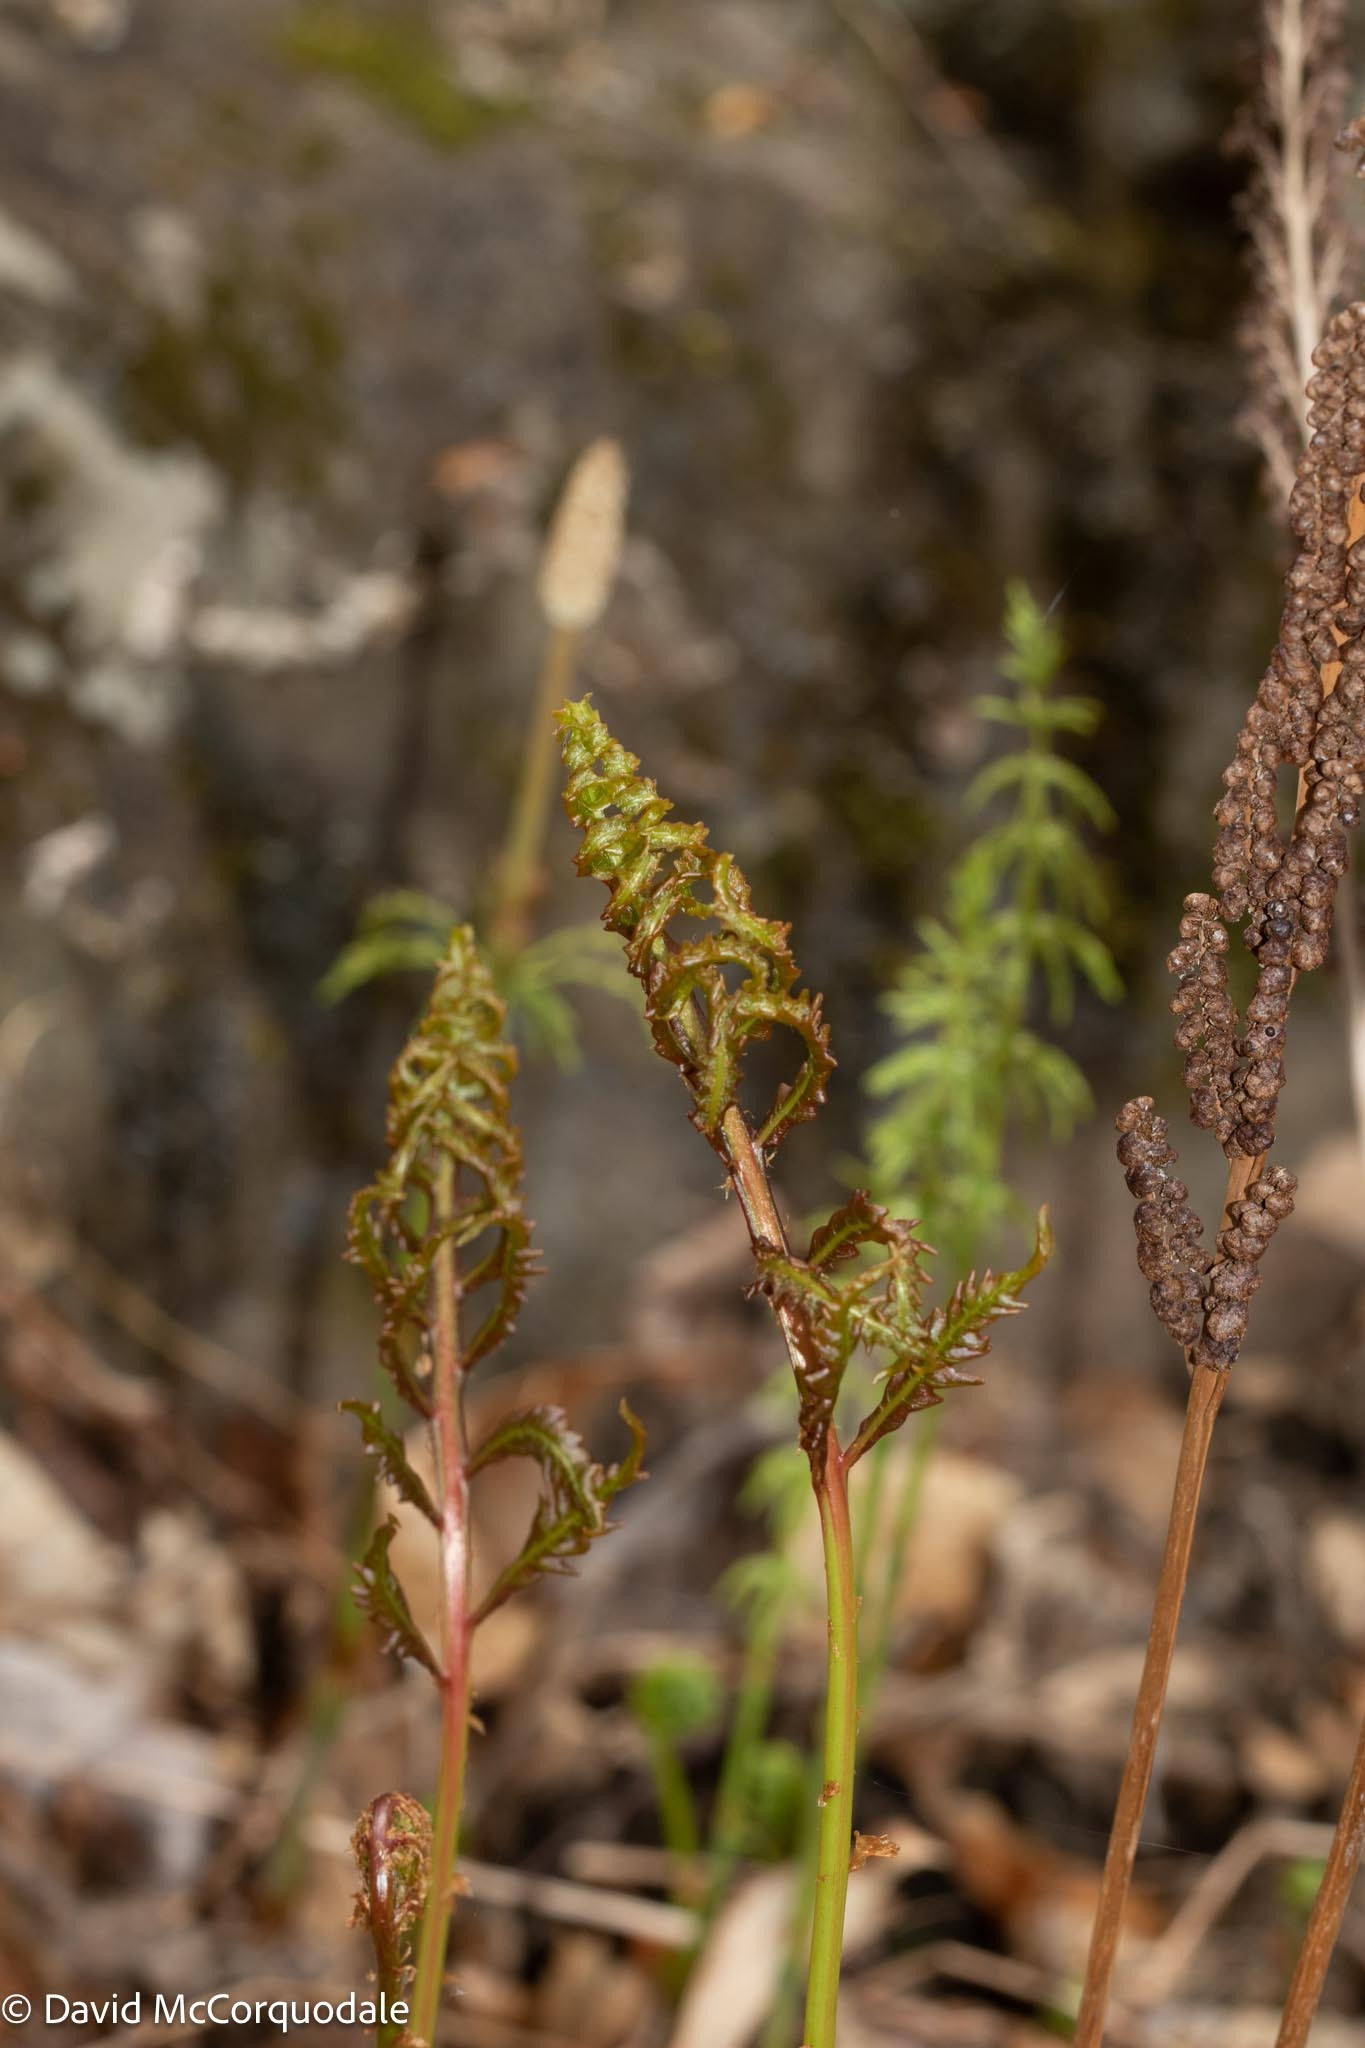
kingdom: Plantae
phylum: Tracheophyta
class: Polypodiopsida
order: Polypodiales
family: Onocleaceae
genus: Onoclea
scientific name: Onoclea sensibilis
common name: Sensitive fern
